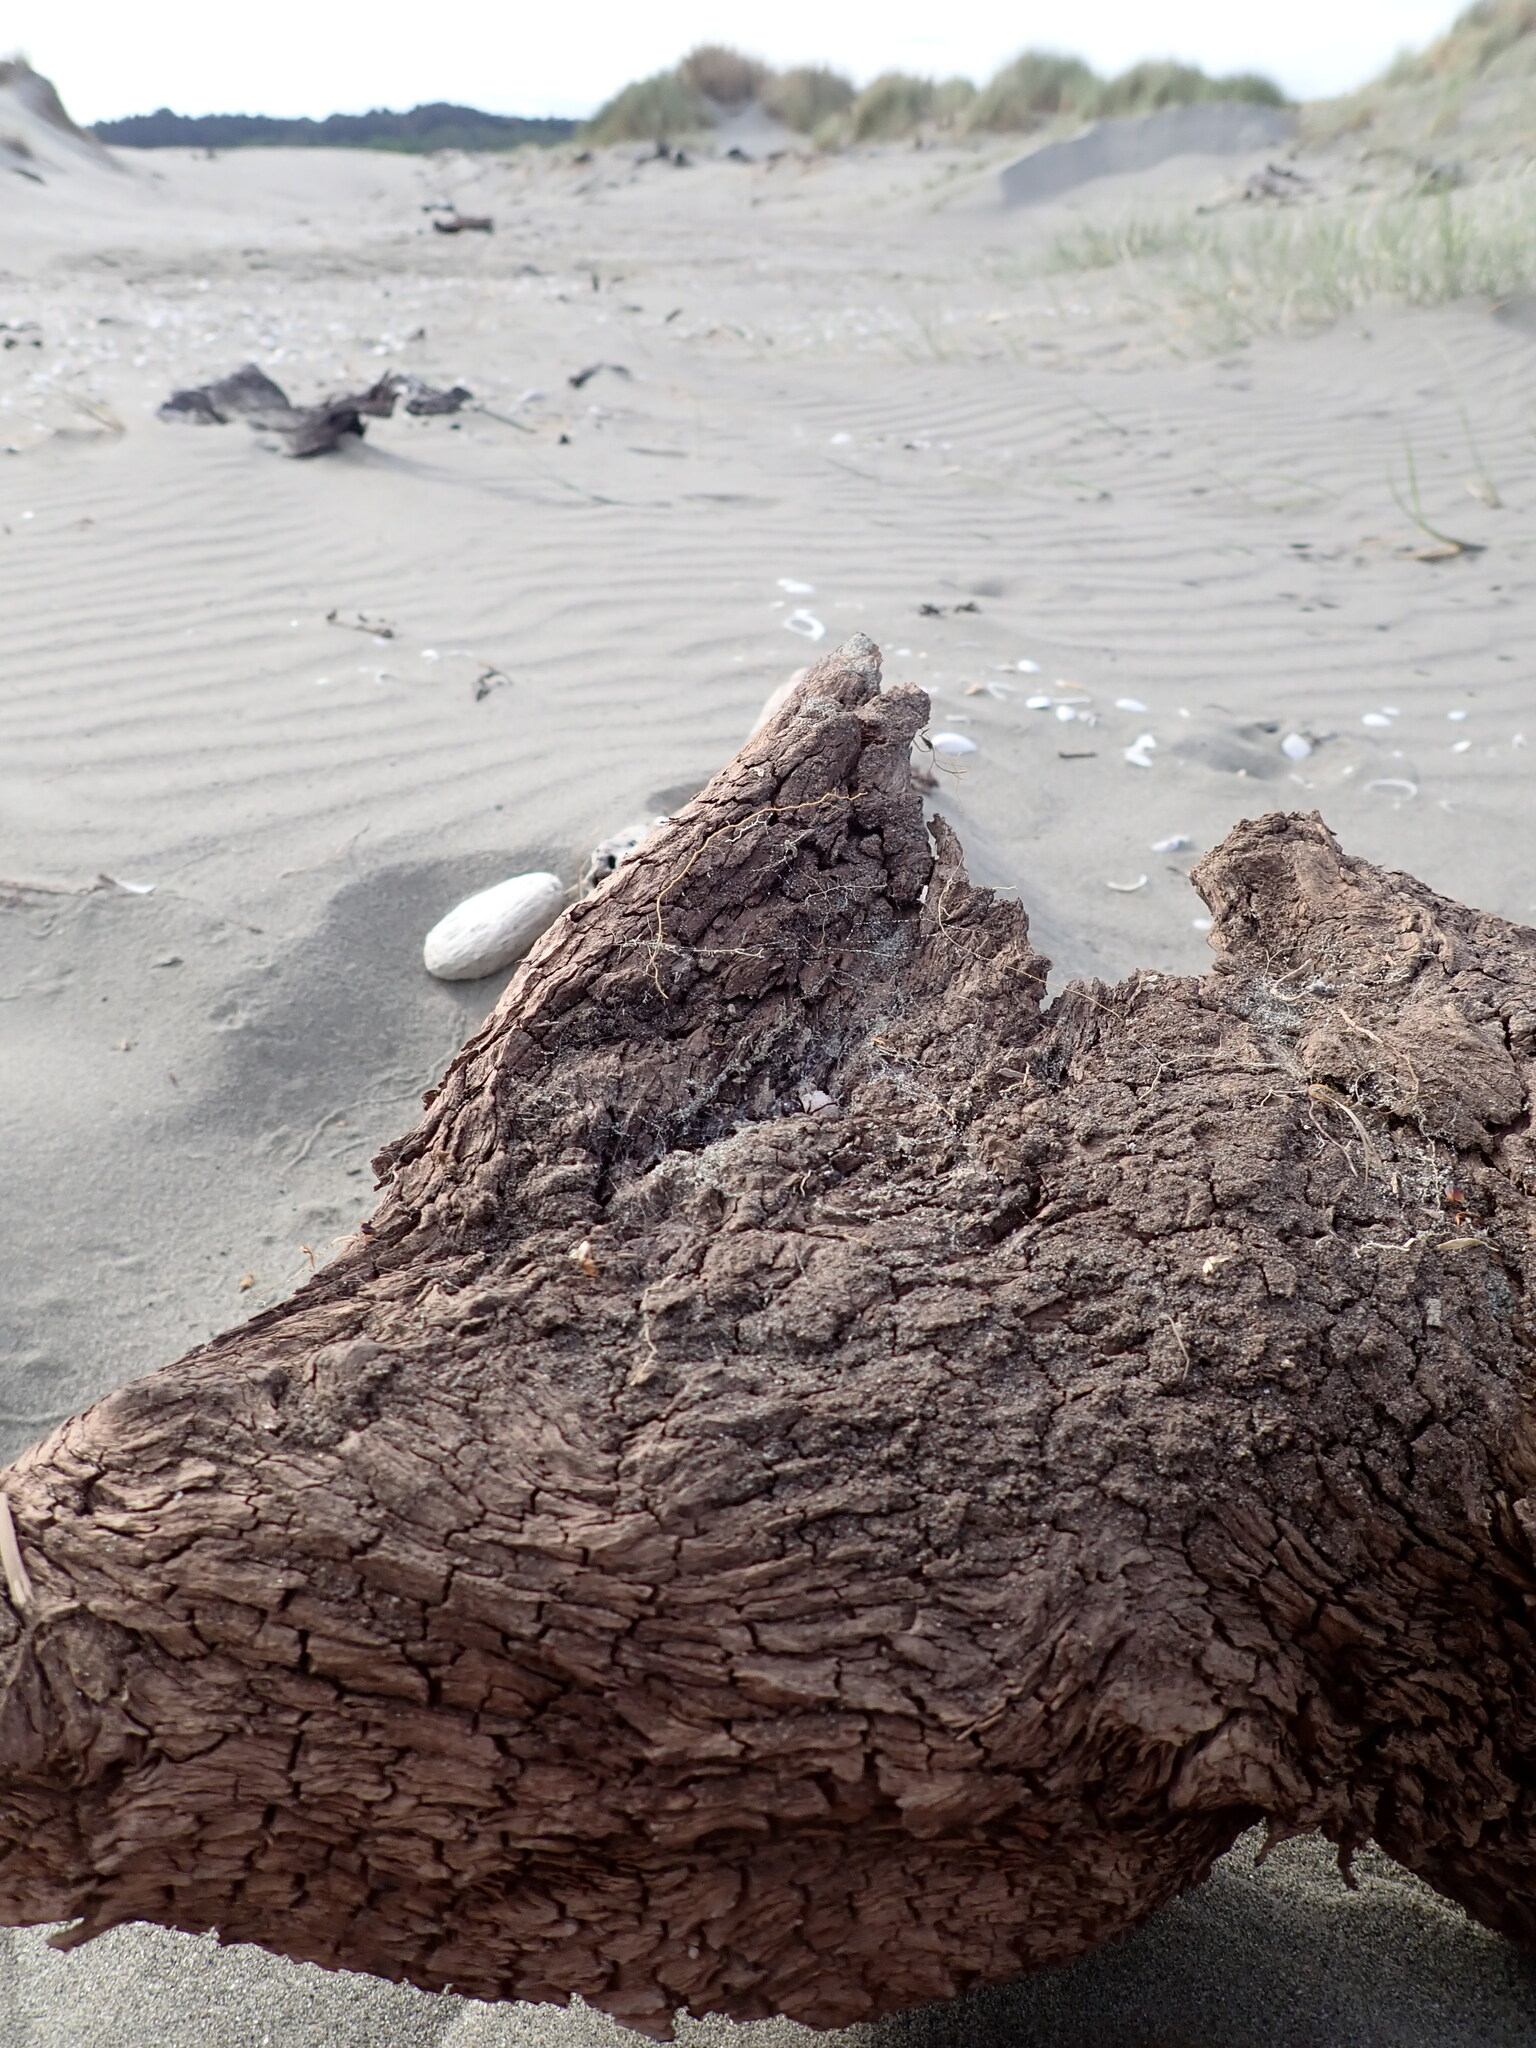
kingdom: Animalia
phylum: Arthropoda
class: Arachnida
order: Araneae
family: Theridiidae
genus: Steatoda
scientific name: Steatoda capensis
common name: Cobweb weaver
